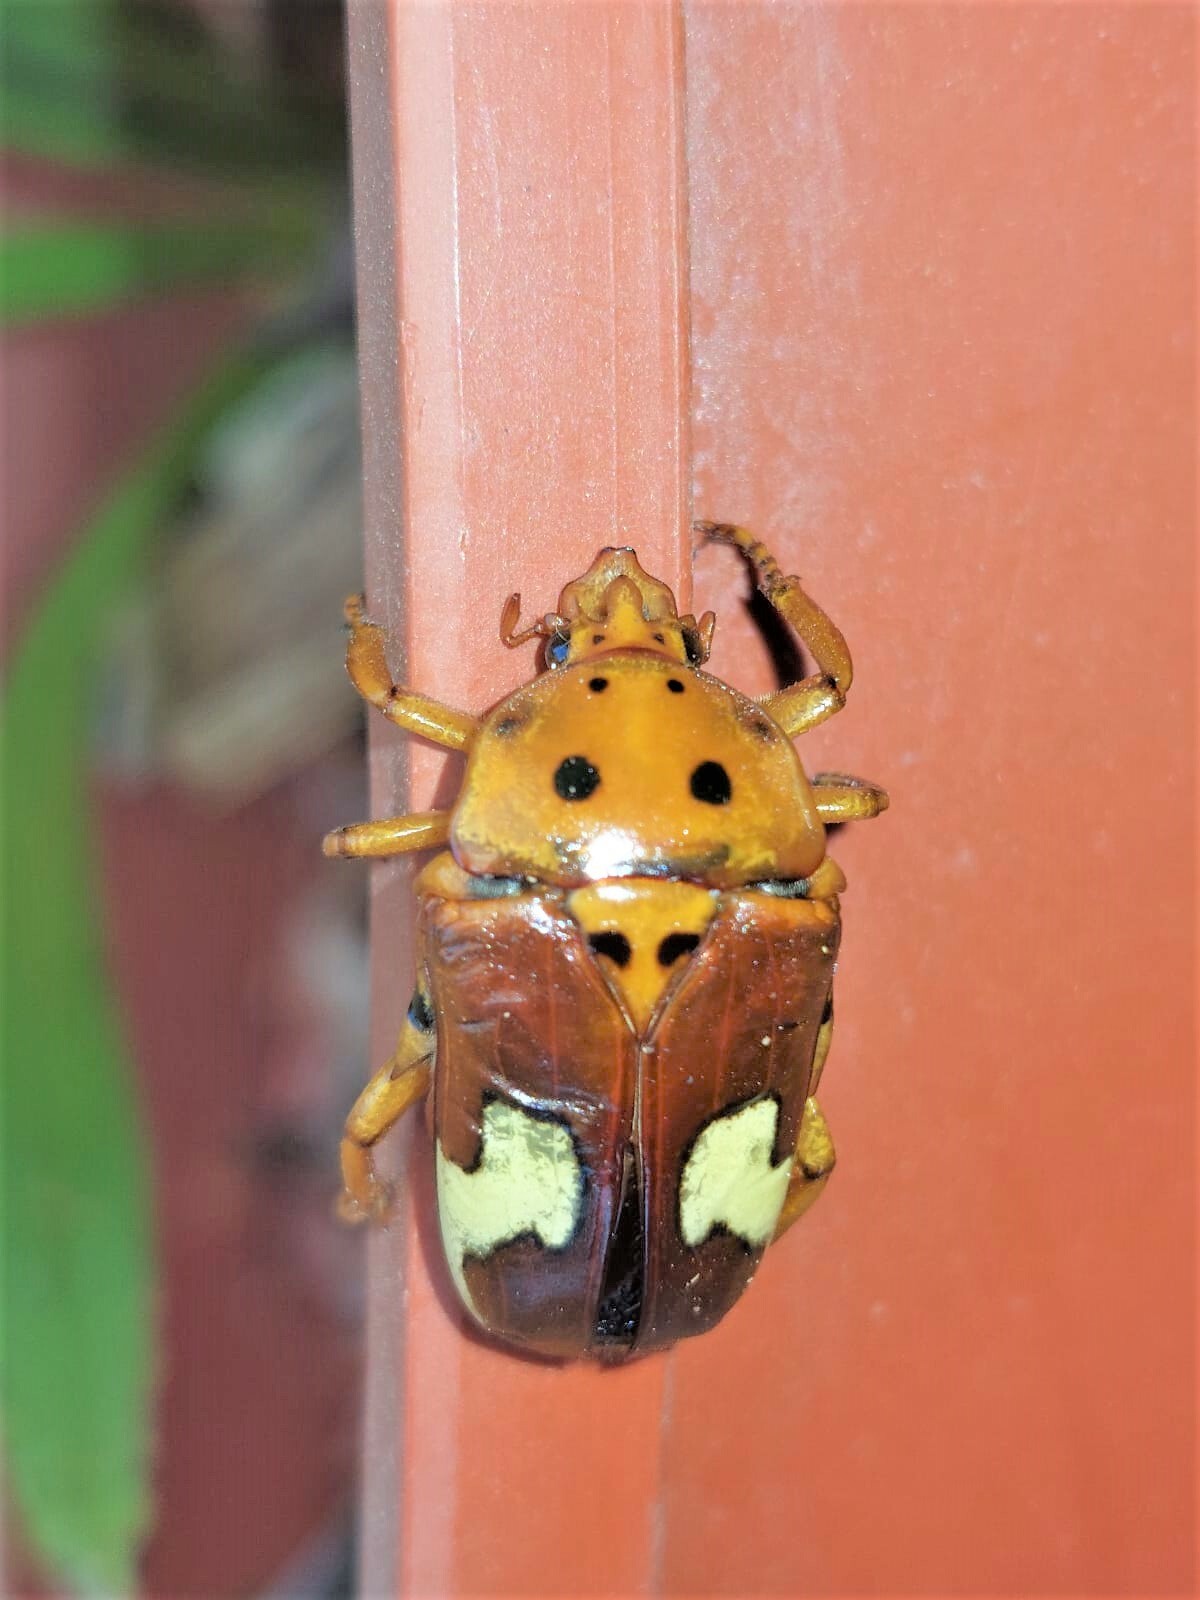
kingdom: Animalia
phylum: Arthropoda
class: Insecta
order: Coleoptera
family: Scarabaeidae
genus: Anisorrhina
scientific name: Anisorrhina flavomaculata
